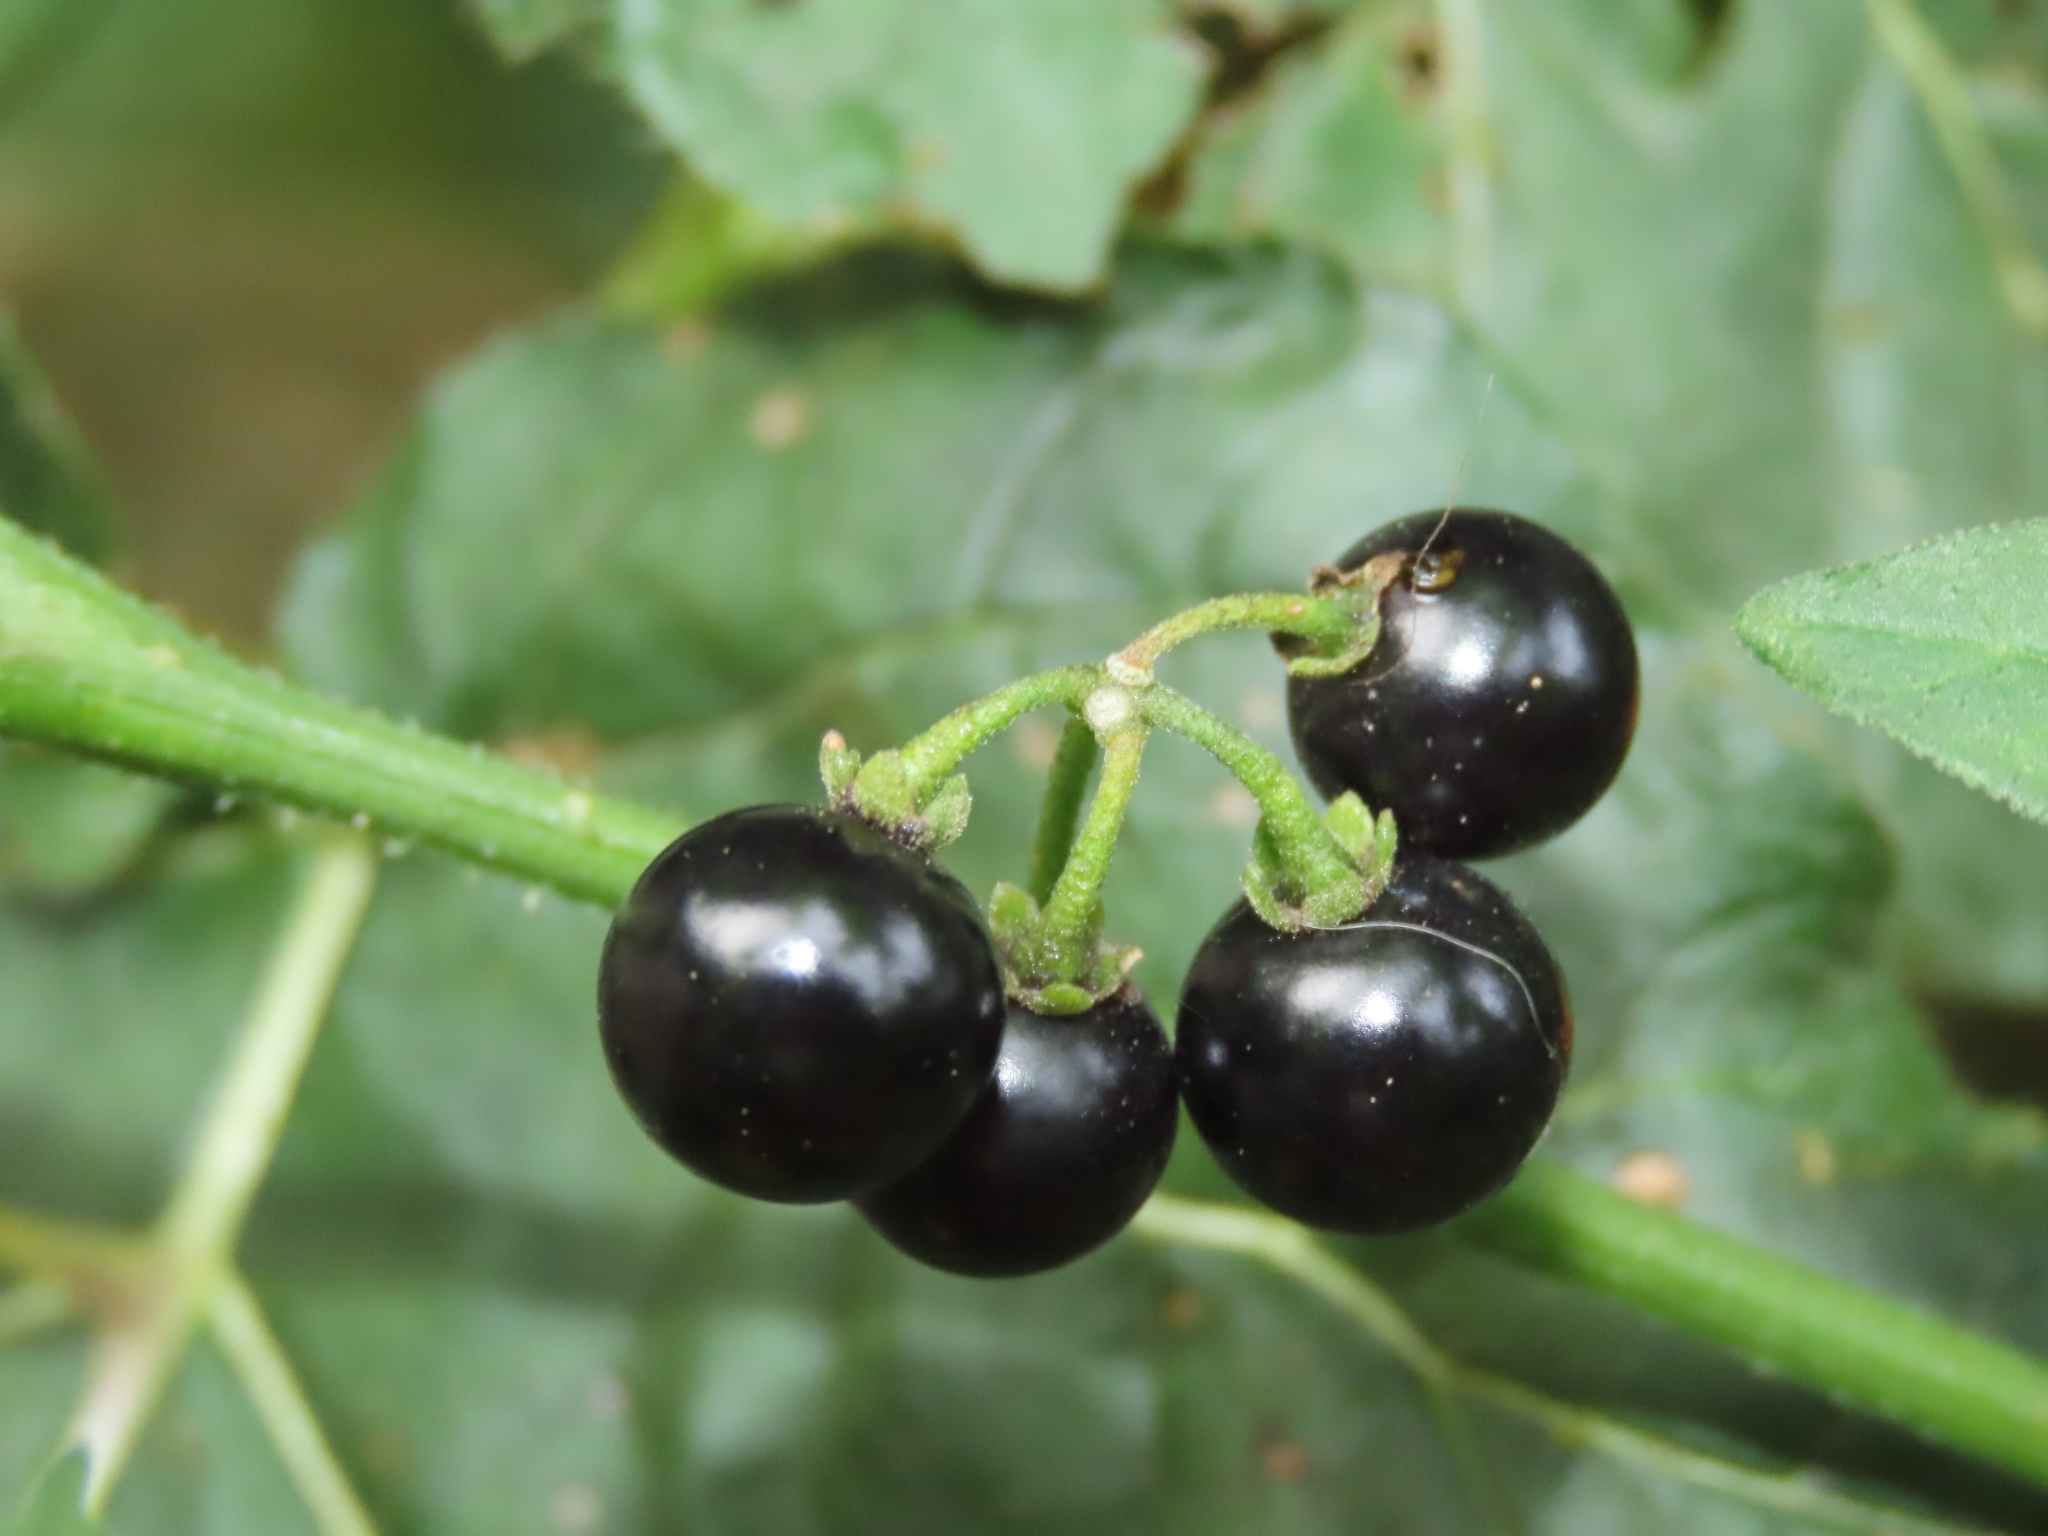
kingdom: Plantae
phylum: Tracheophyta
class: Magnoliopsida
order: Solanales
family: Solanaceae
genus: Solanum
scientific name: Solanum americanum
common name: American black nightshade
